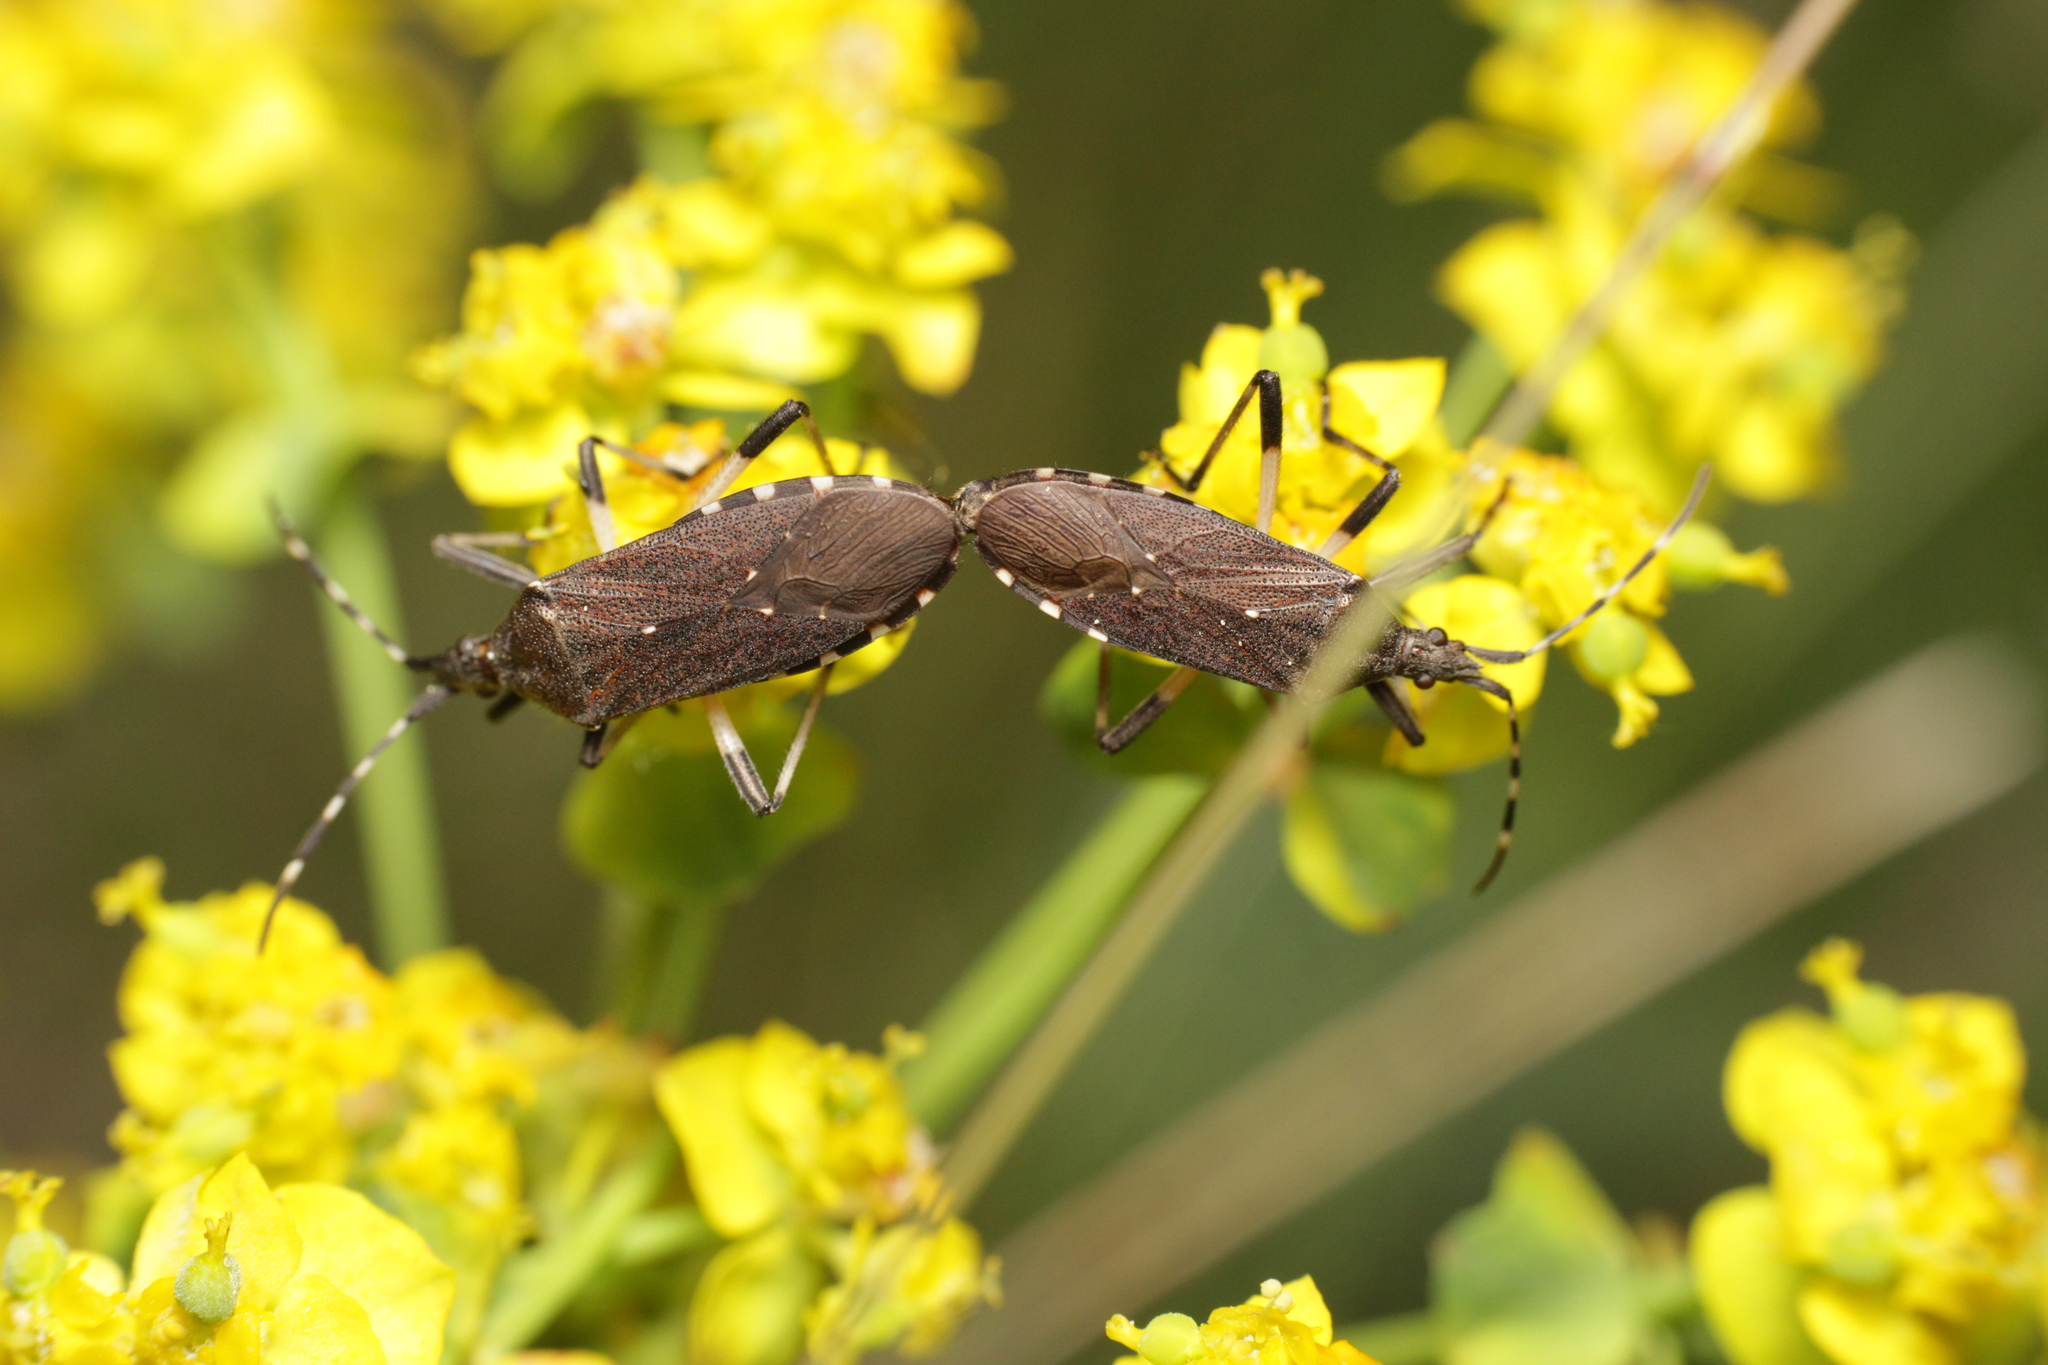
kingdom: Animalia
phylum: Arthropoda
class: Insecta
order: Hemiptera
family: Stenocephalidae
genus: Dicranocephalus
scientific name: Dicranocephalus agilis
